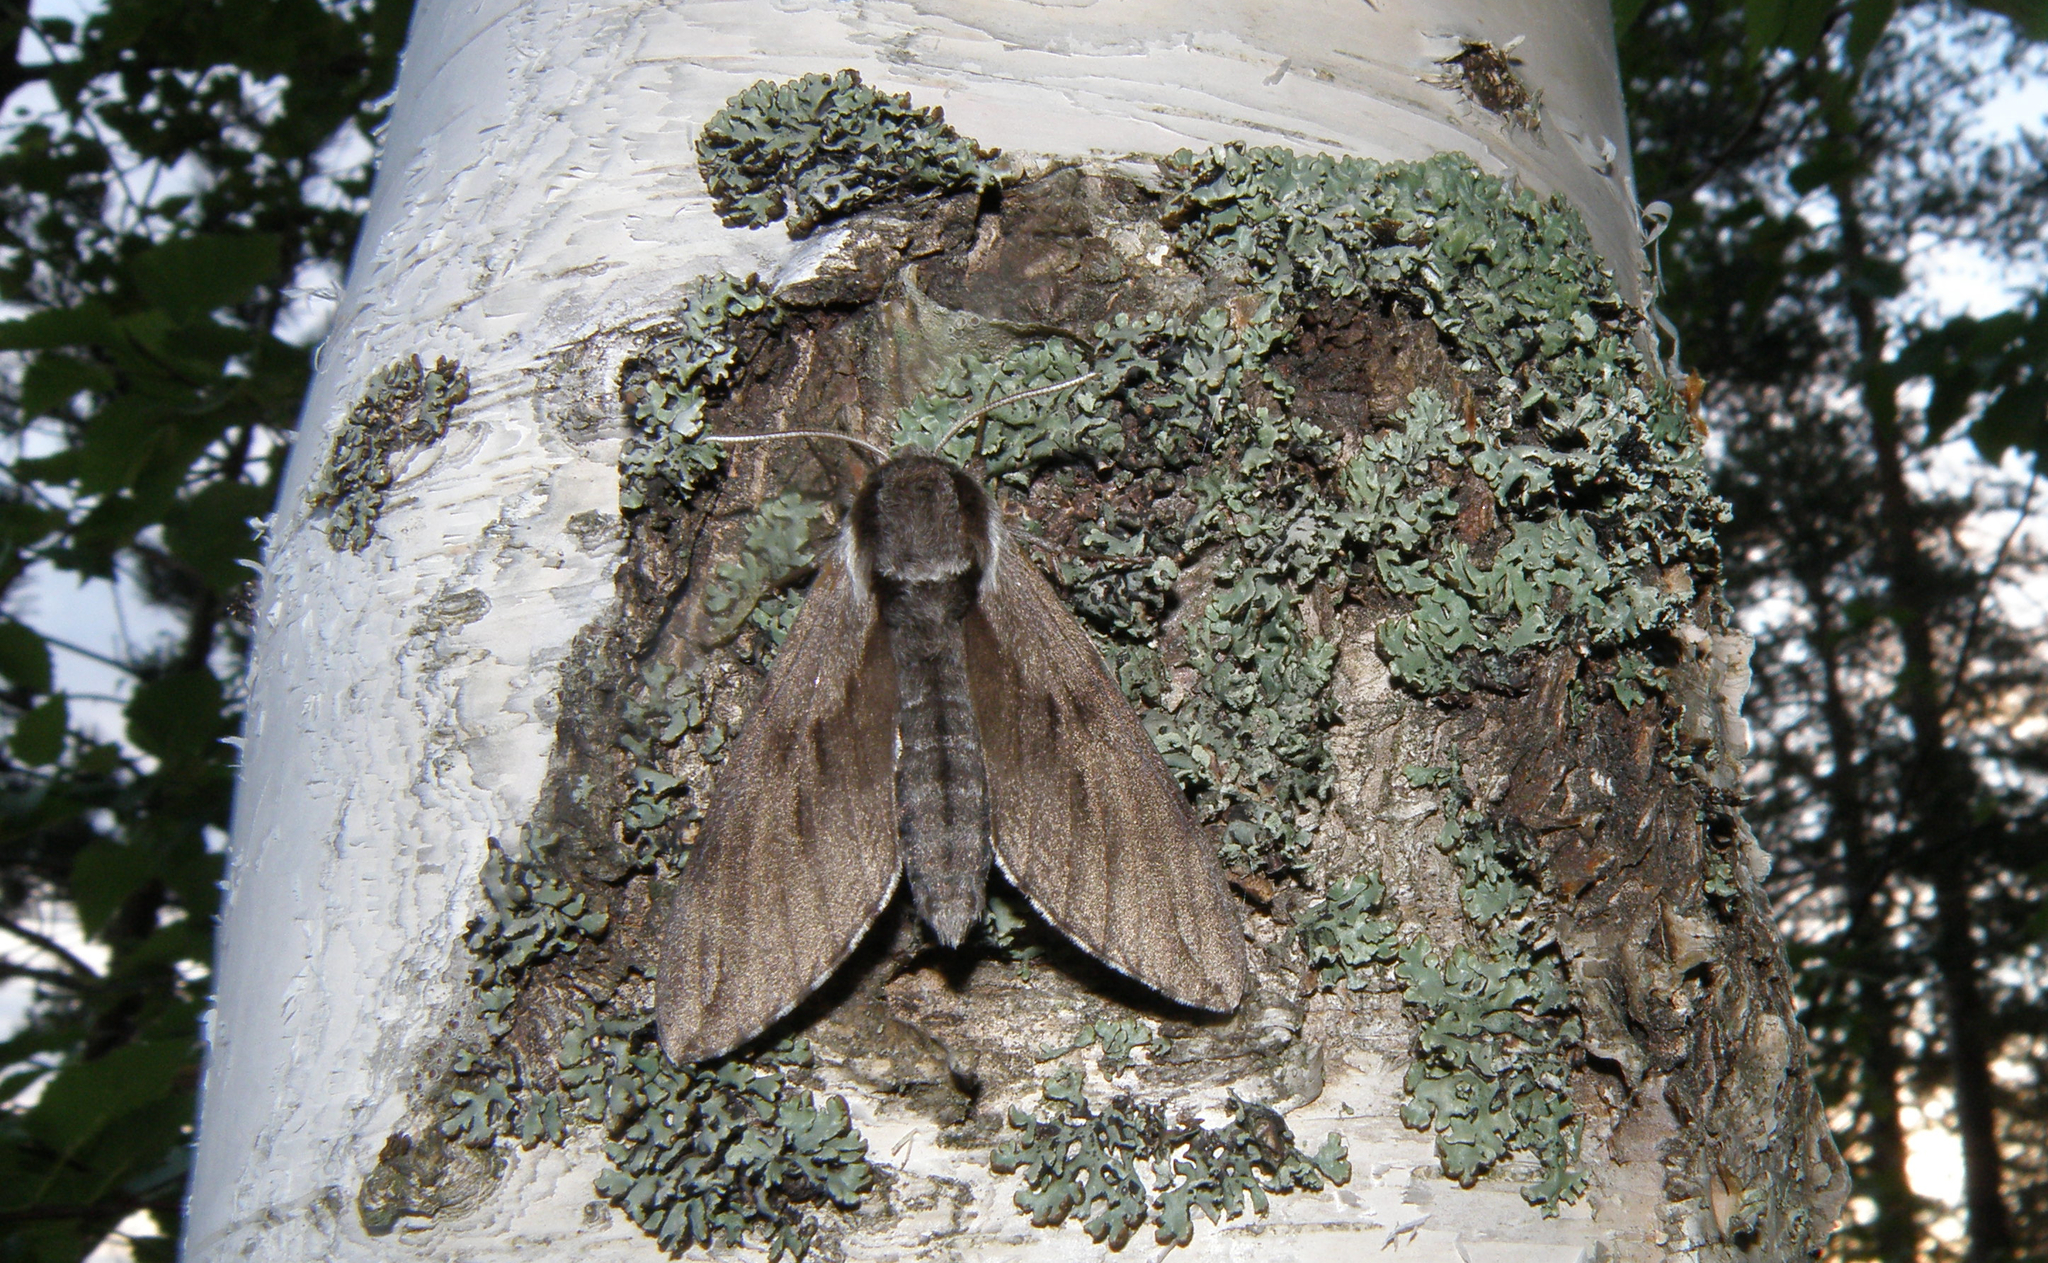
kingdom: Animalia
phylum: Arthropoda
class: Insecta
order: Lepidoptera
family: Sphingidae
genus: Sphinx
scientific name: Sphinx pinastri
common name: Pine hawk-moth
